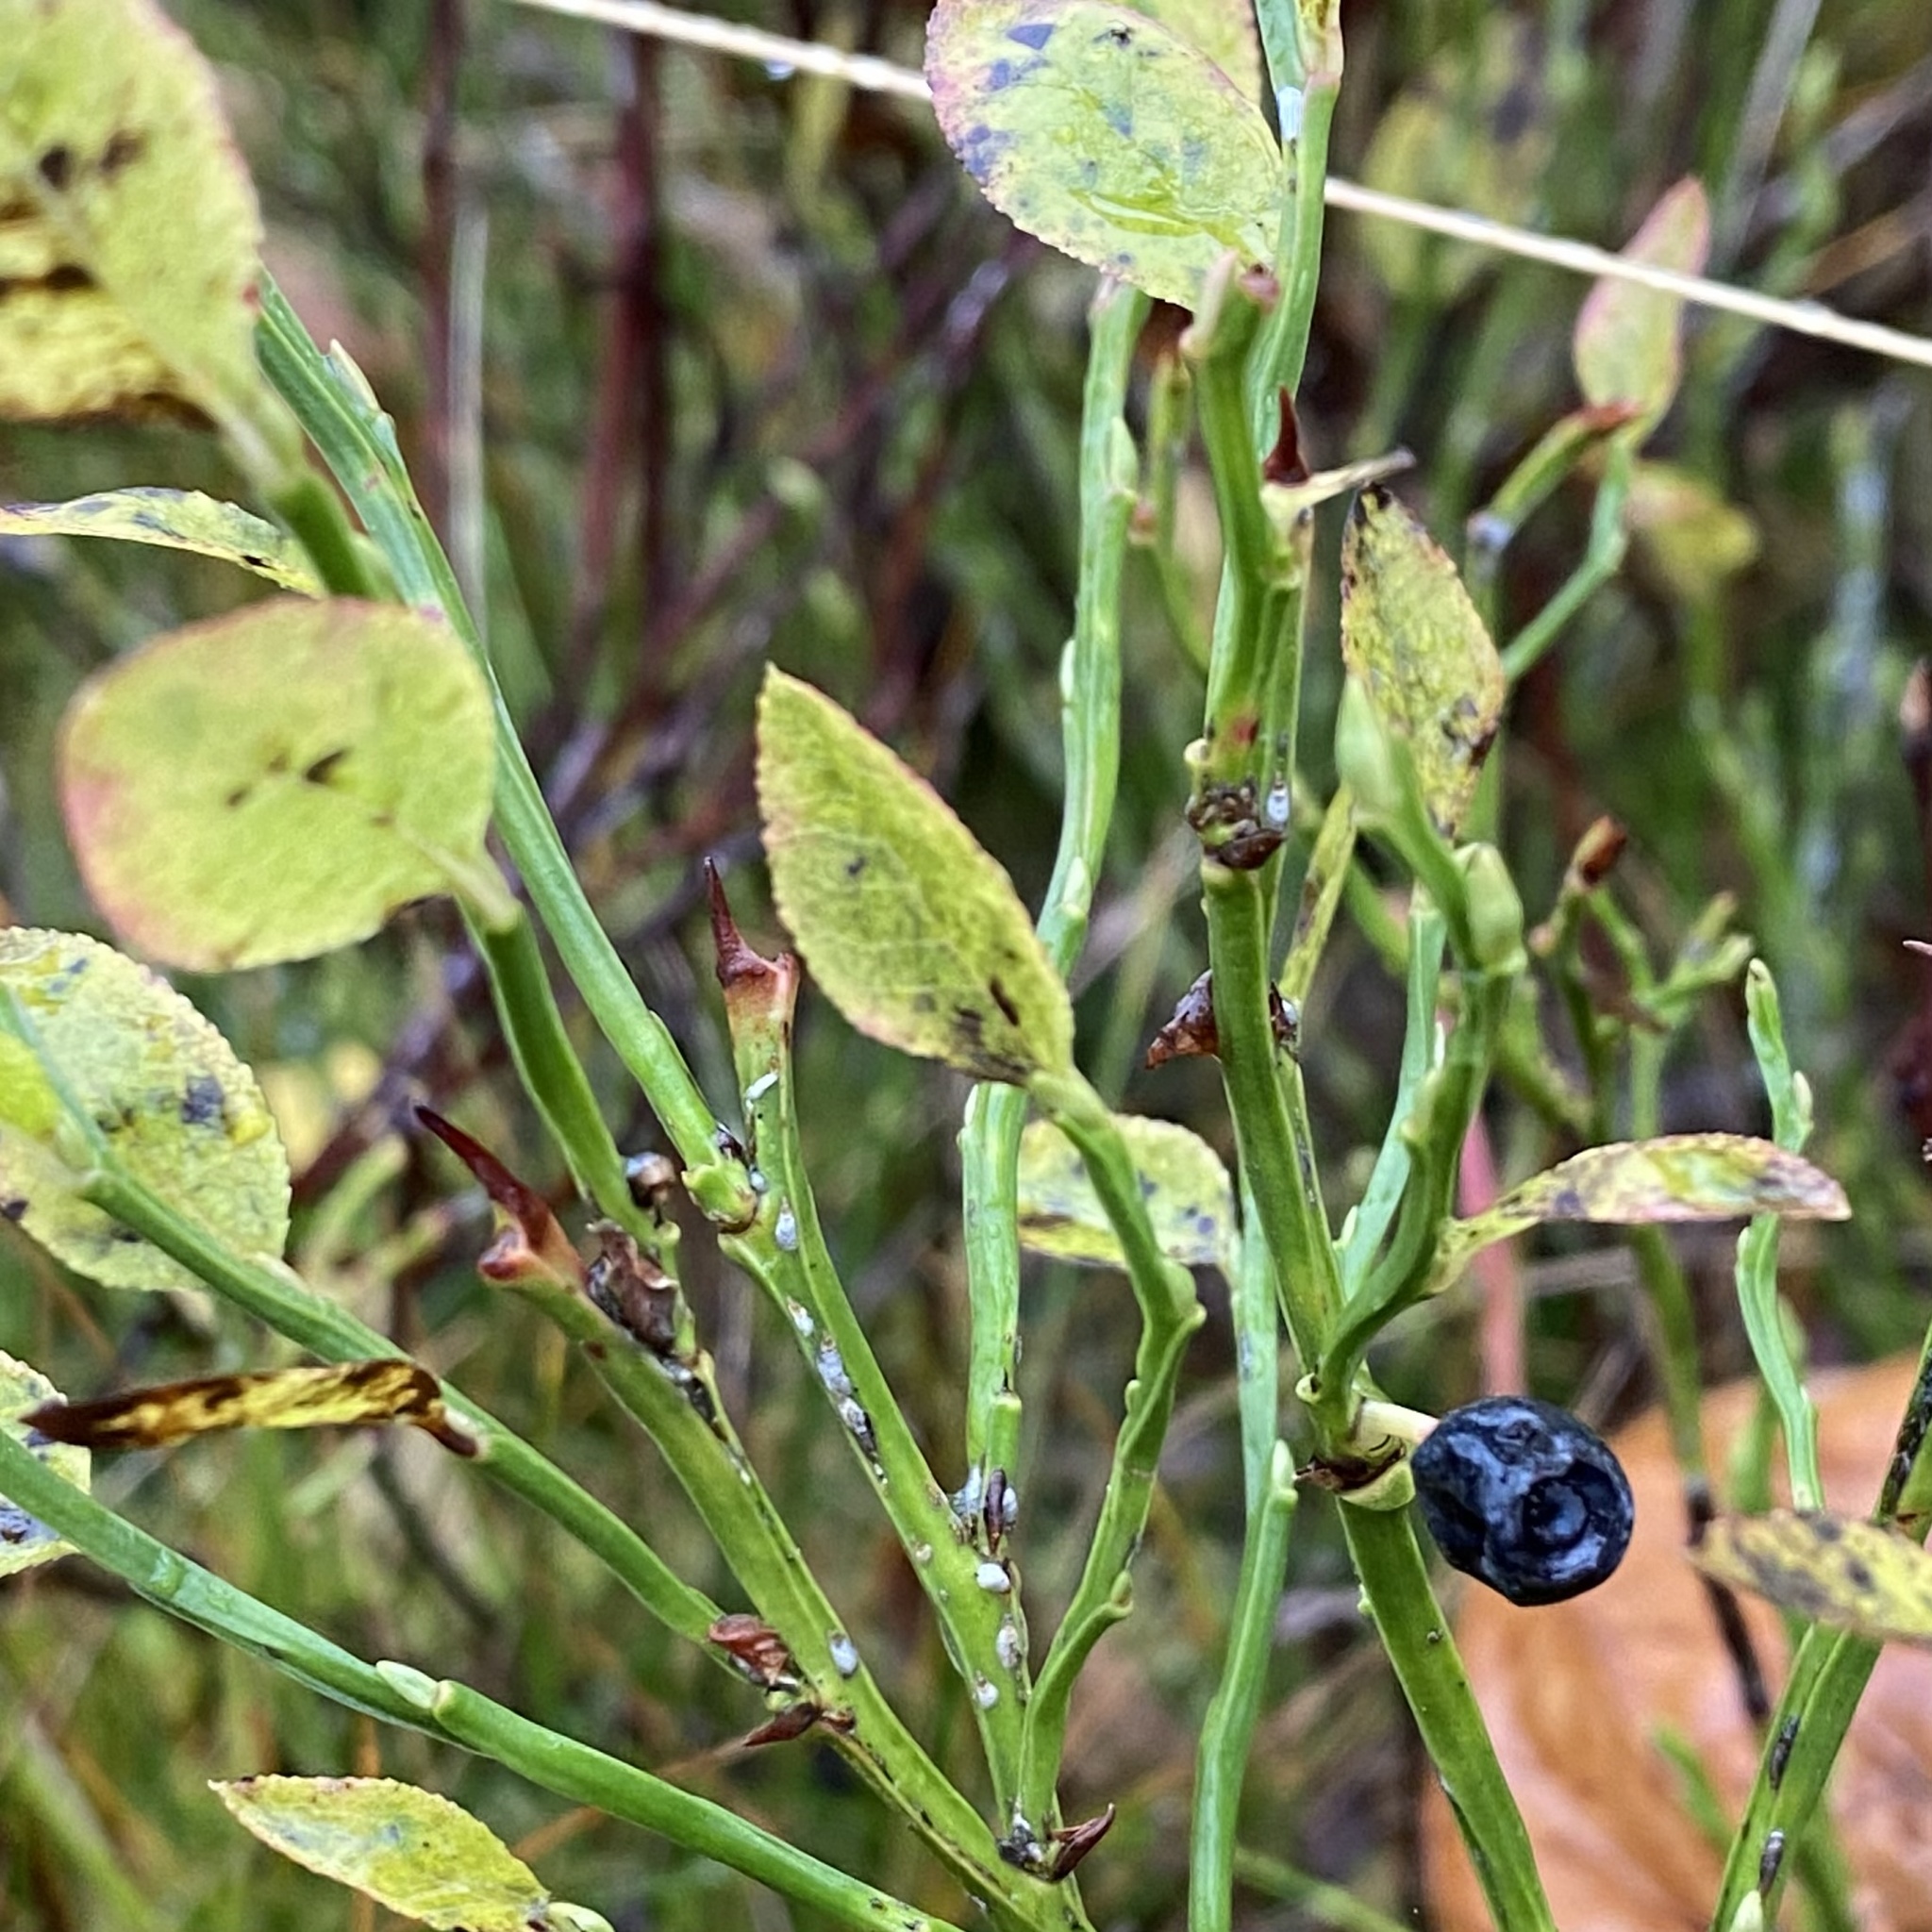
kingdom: Plantae
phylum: Tracheophyta
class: Magnoliopsida
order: Ericales
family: Ericaceae
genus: Vaccinium
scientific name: Vaccinium myrtillus
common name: Bilberry
